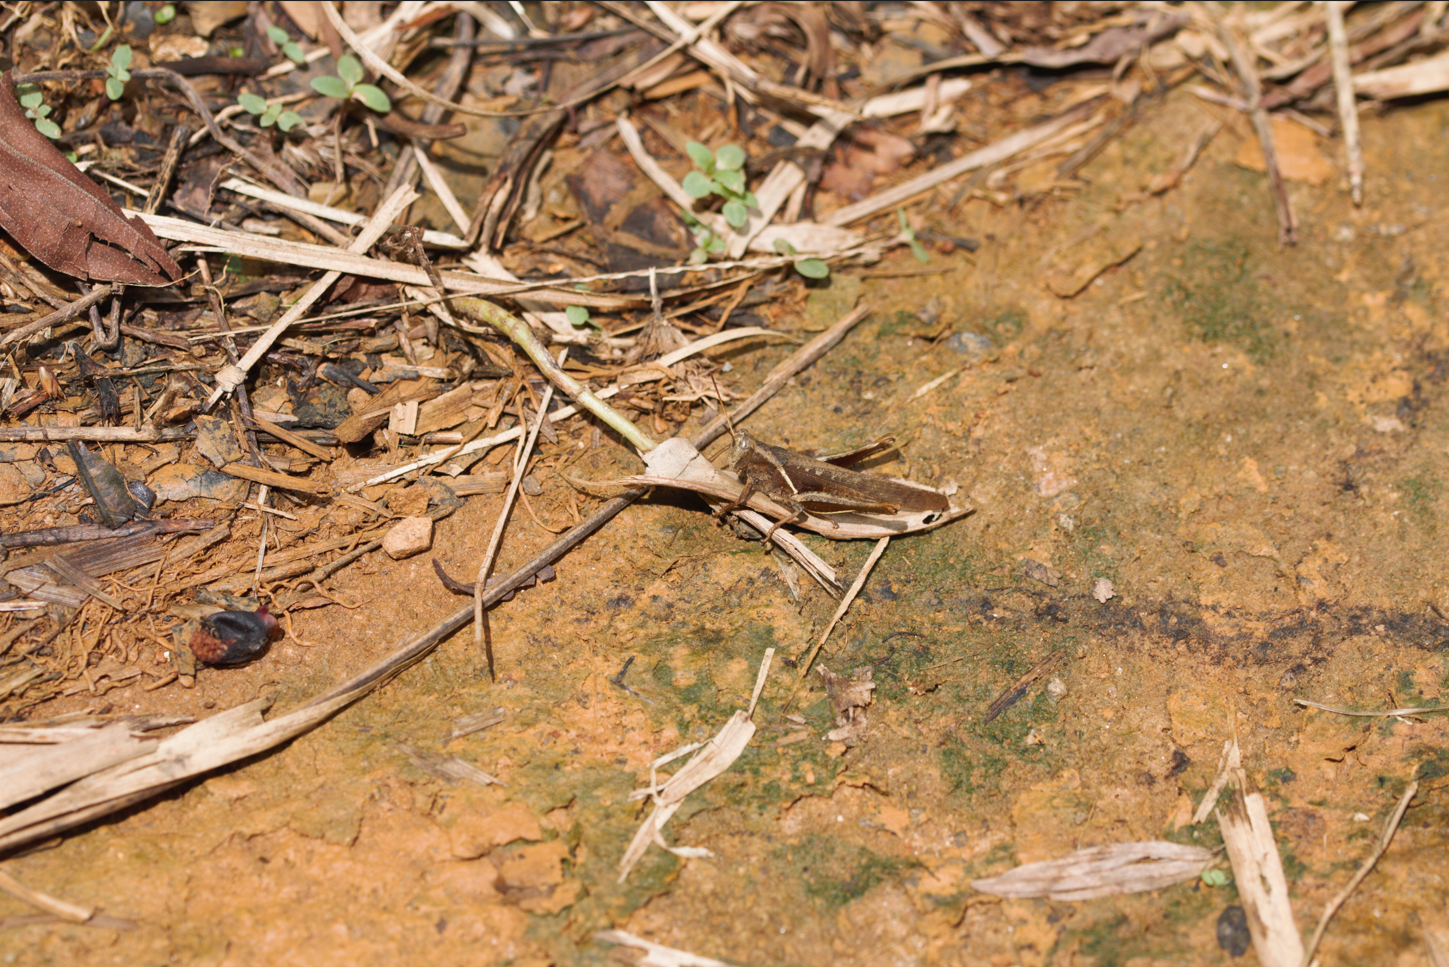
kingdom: Animalia
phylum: Arthropoda
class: Insecta
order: Orthoptera
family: Acrididae
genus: Abracris
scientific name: Abracris flavolineata
